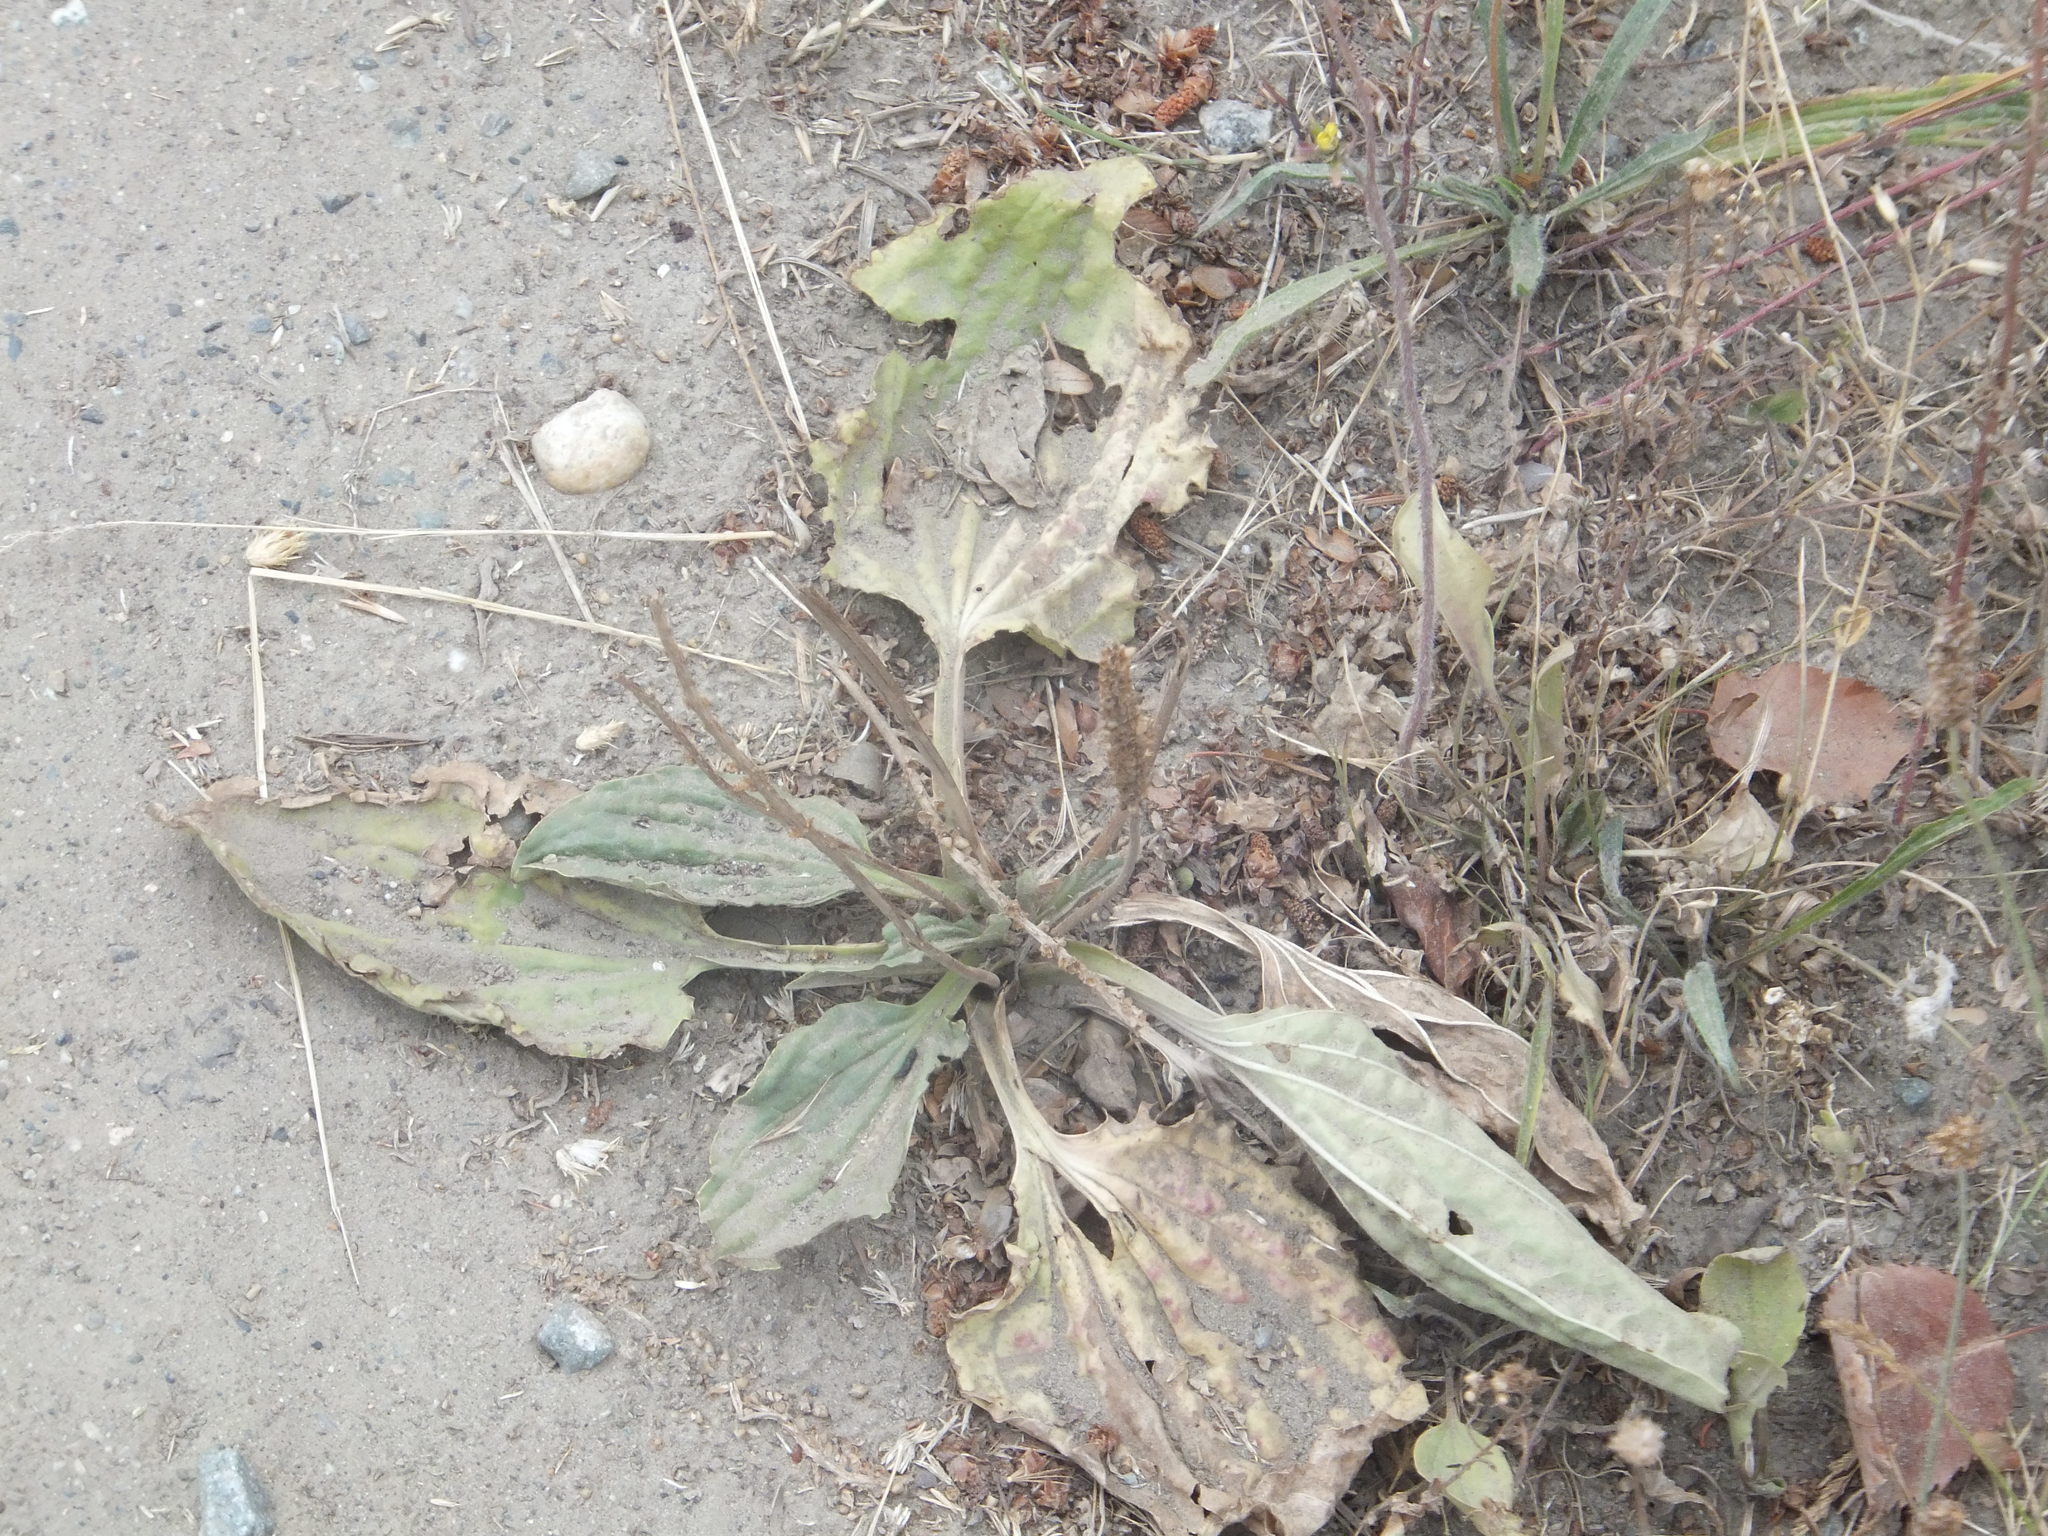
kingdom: Plantae
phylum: Tracheophyta
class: Magnoliopsida
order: Lamiales
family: Plantaginaceae
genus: Plantago
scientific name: Plantago major
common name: Common plantain
